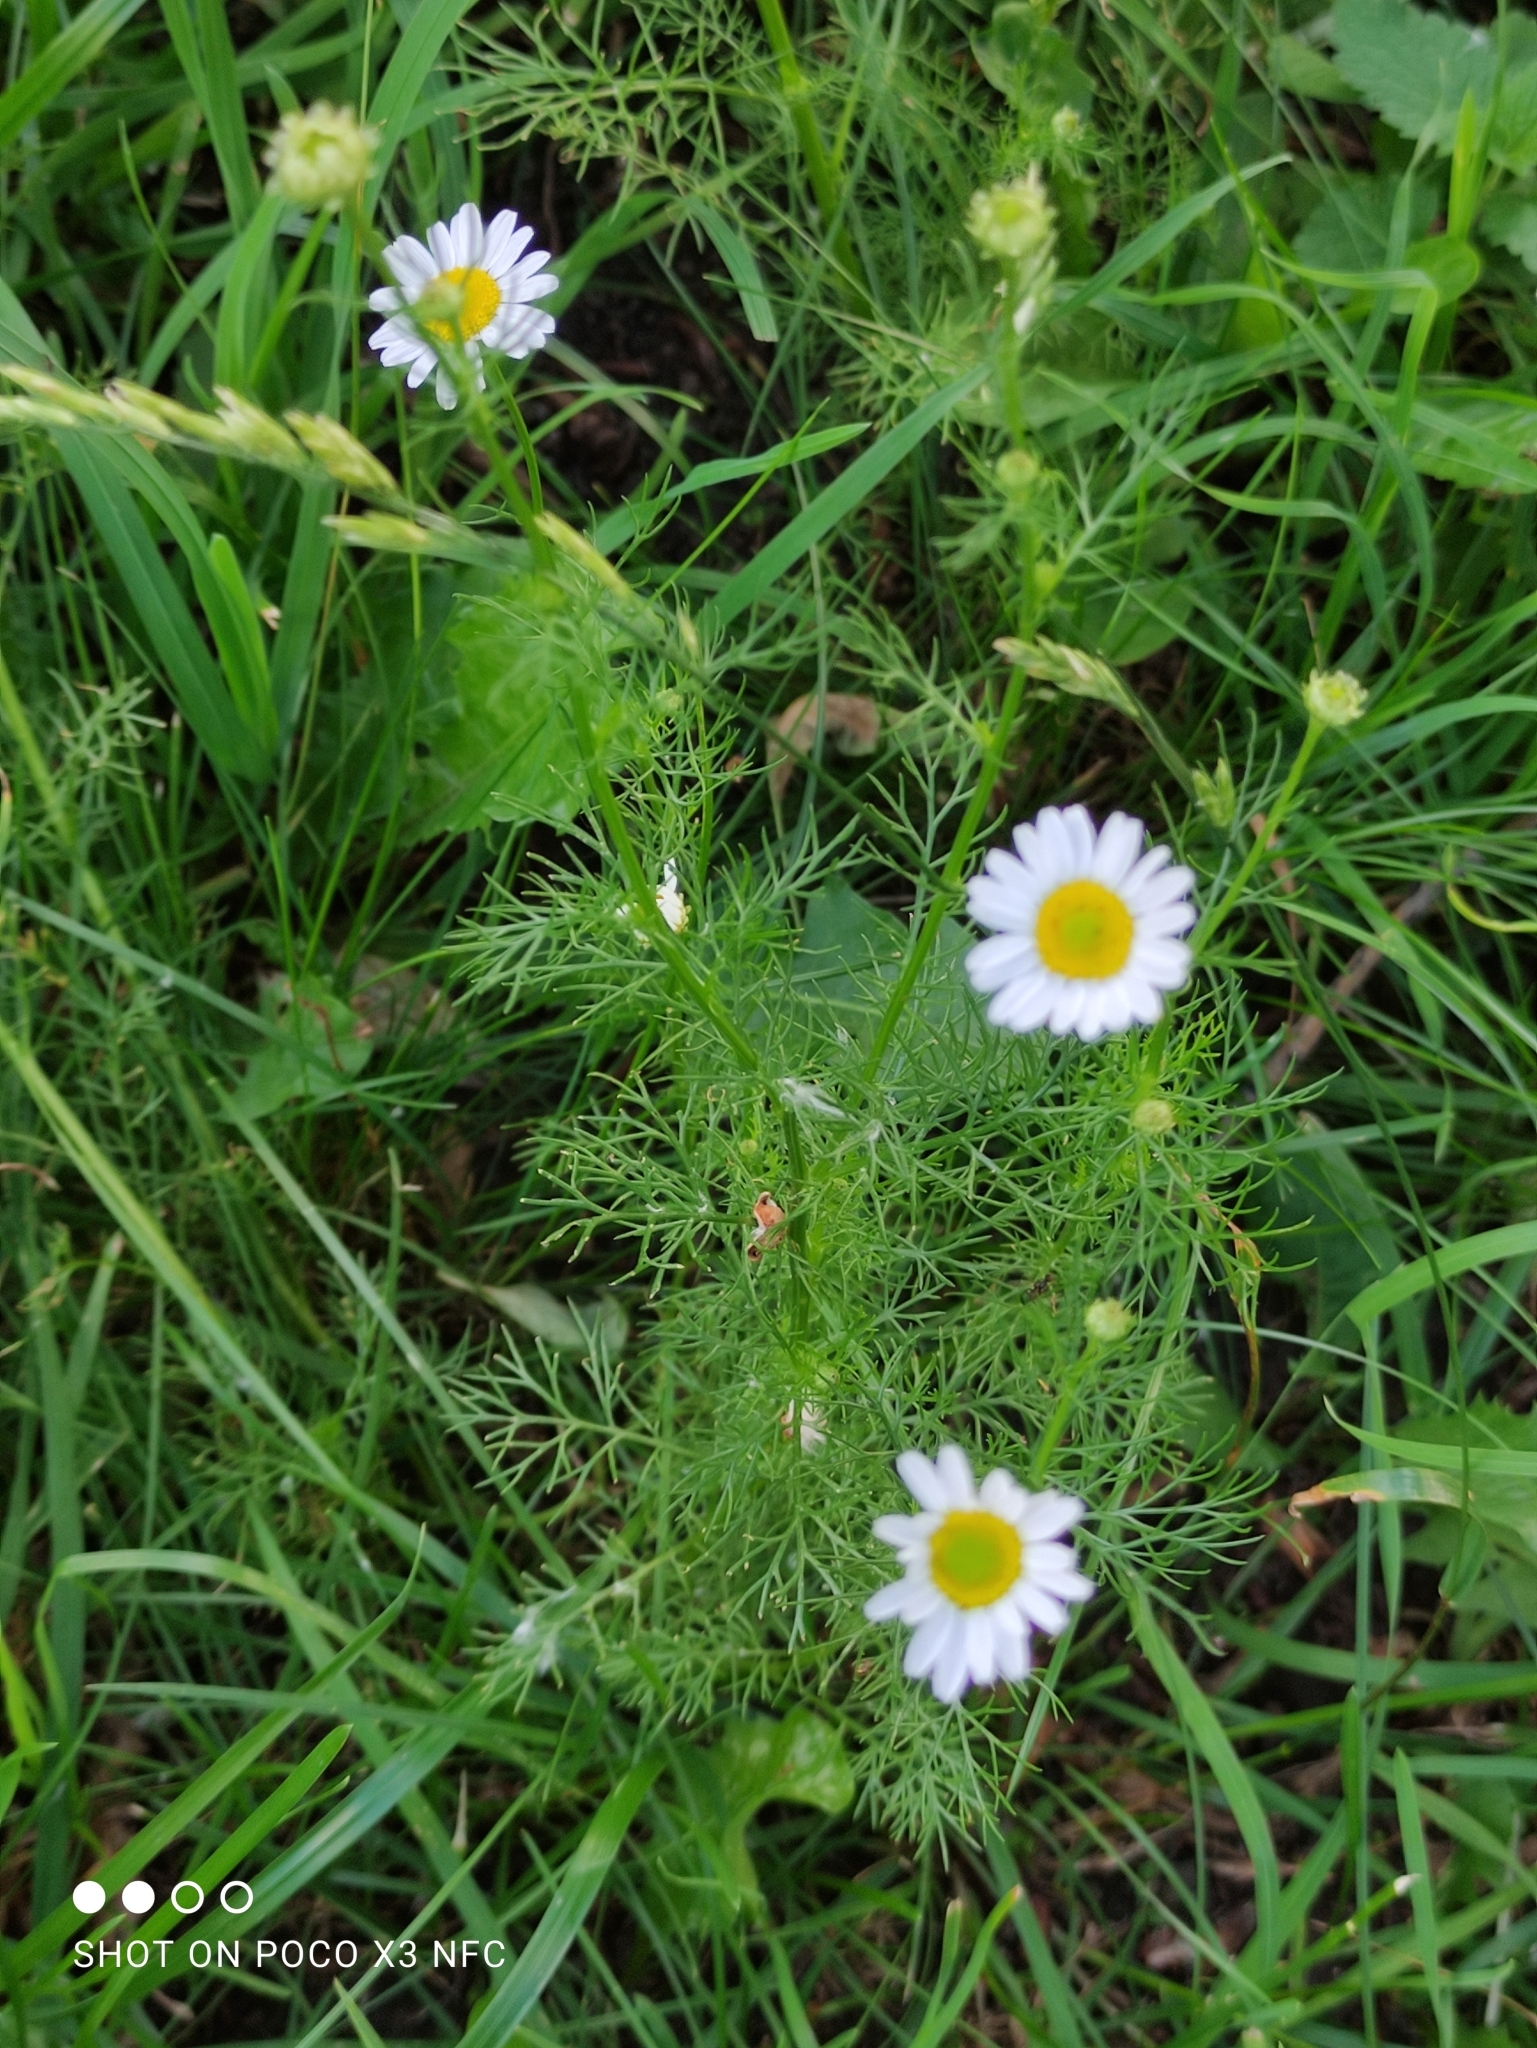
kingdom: Plantae
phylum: Tracheophyta
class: Magnoliopsida
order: Asterales
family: Asteraceae
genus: Tripleurospermum
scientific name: Tripleurospermum inodorum
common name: Scentless mayweed
